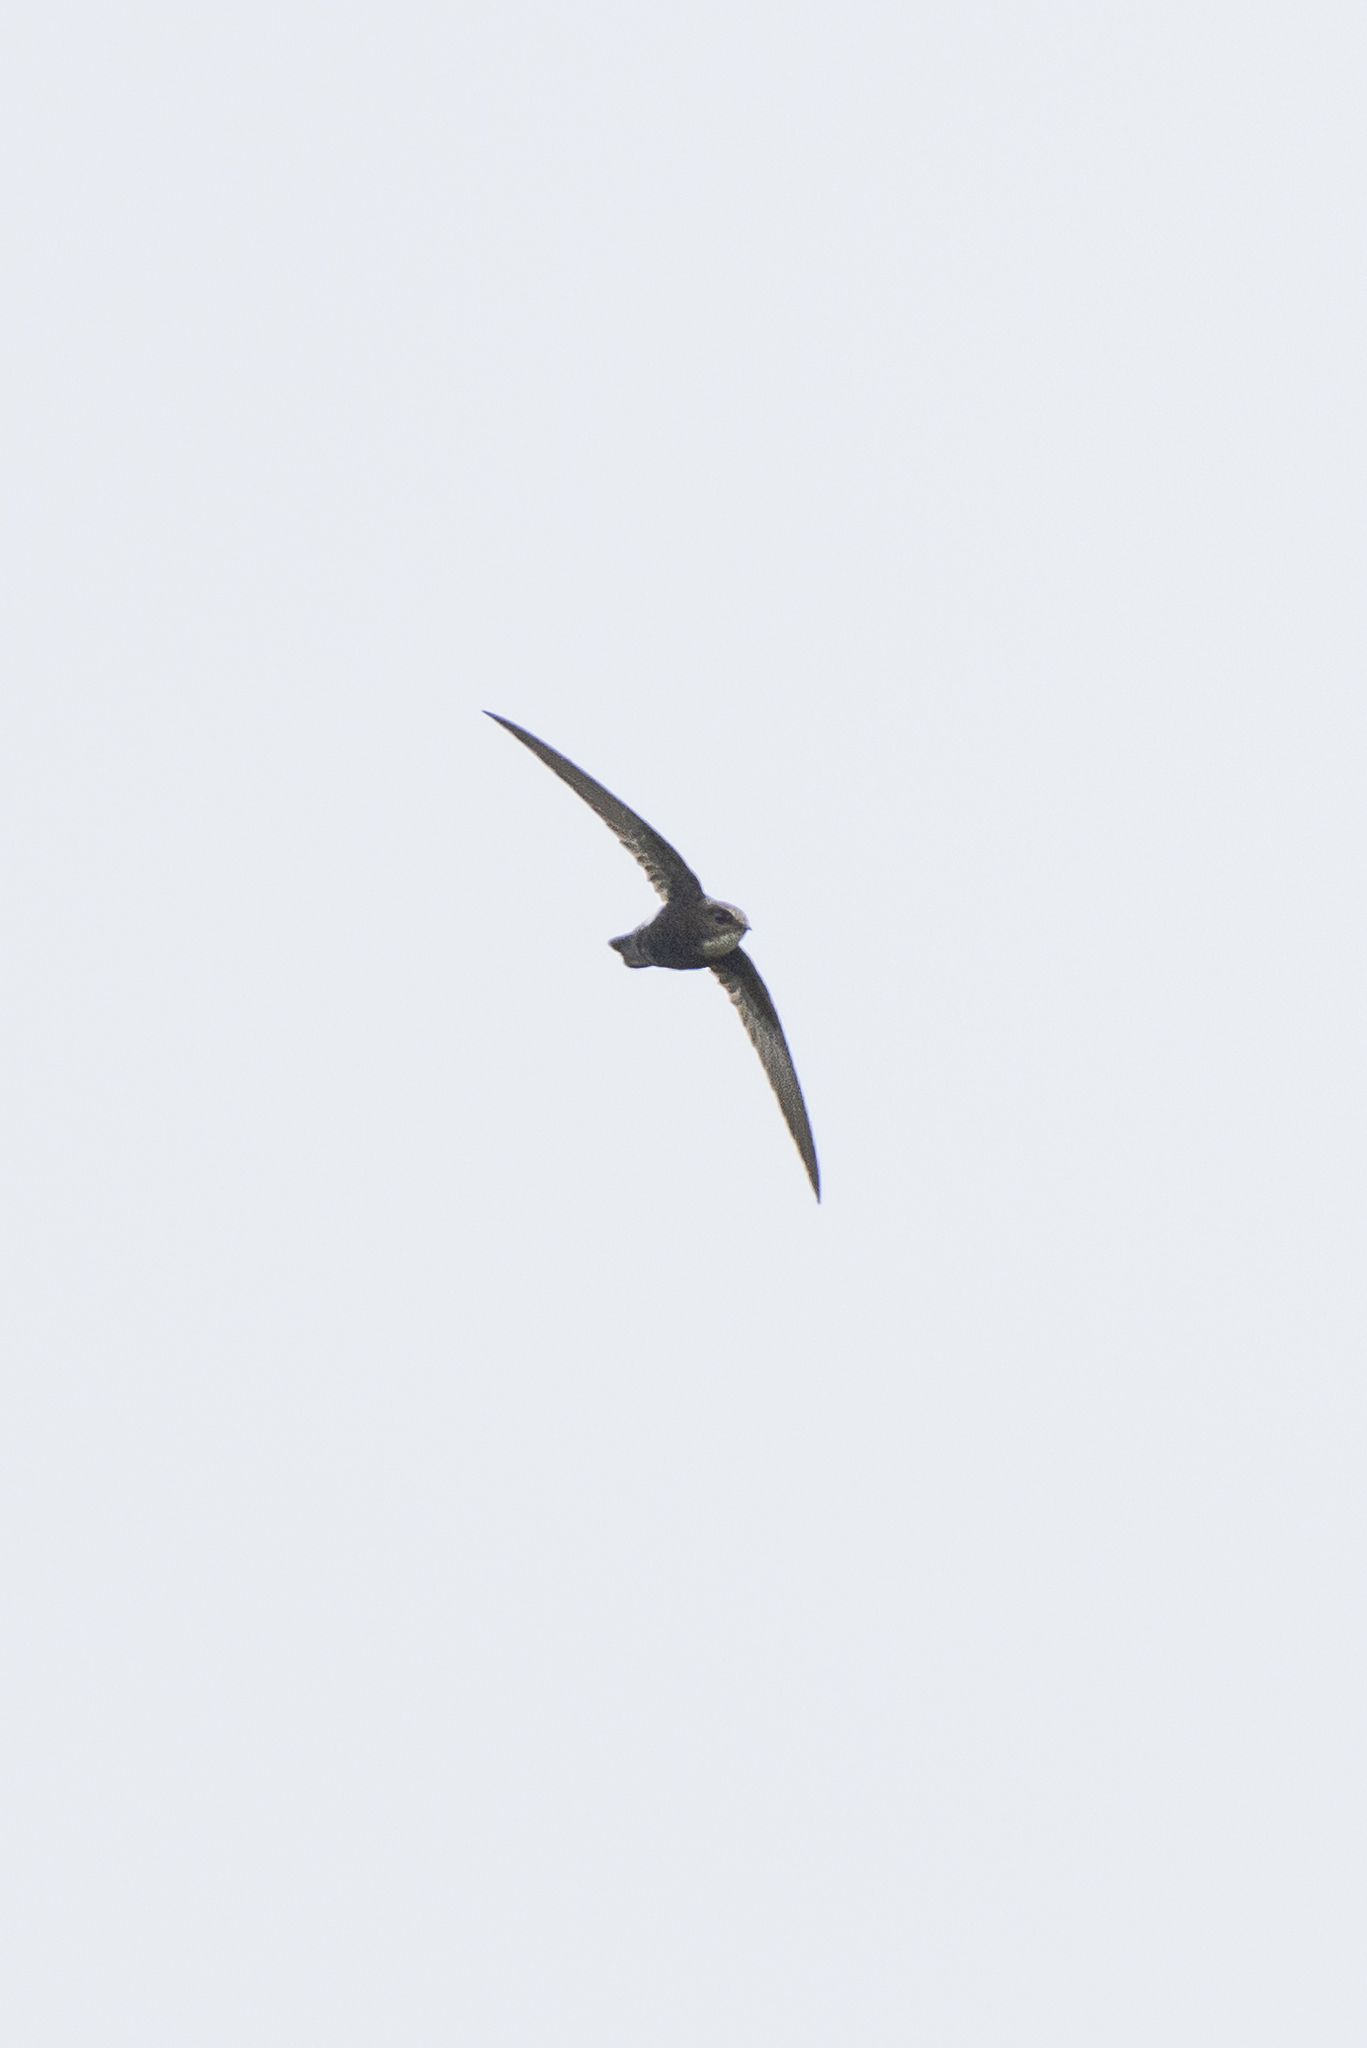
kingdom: Animalia
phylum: Chordata
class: Aves
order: Apodiformes
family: Apodidae
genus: Apus
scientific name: Apus nipalensis
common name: House swift
